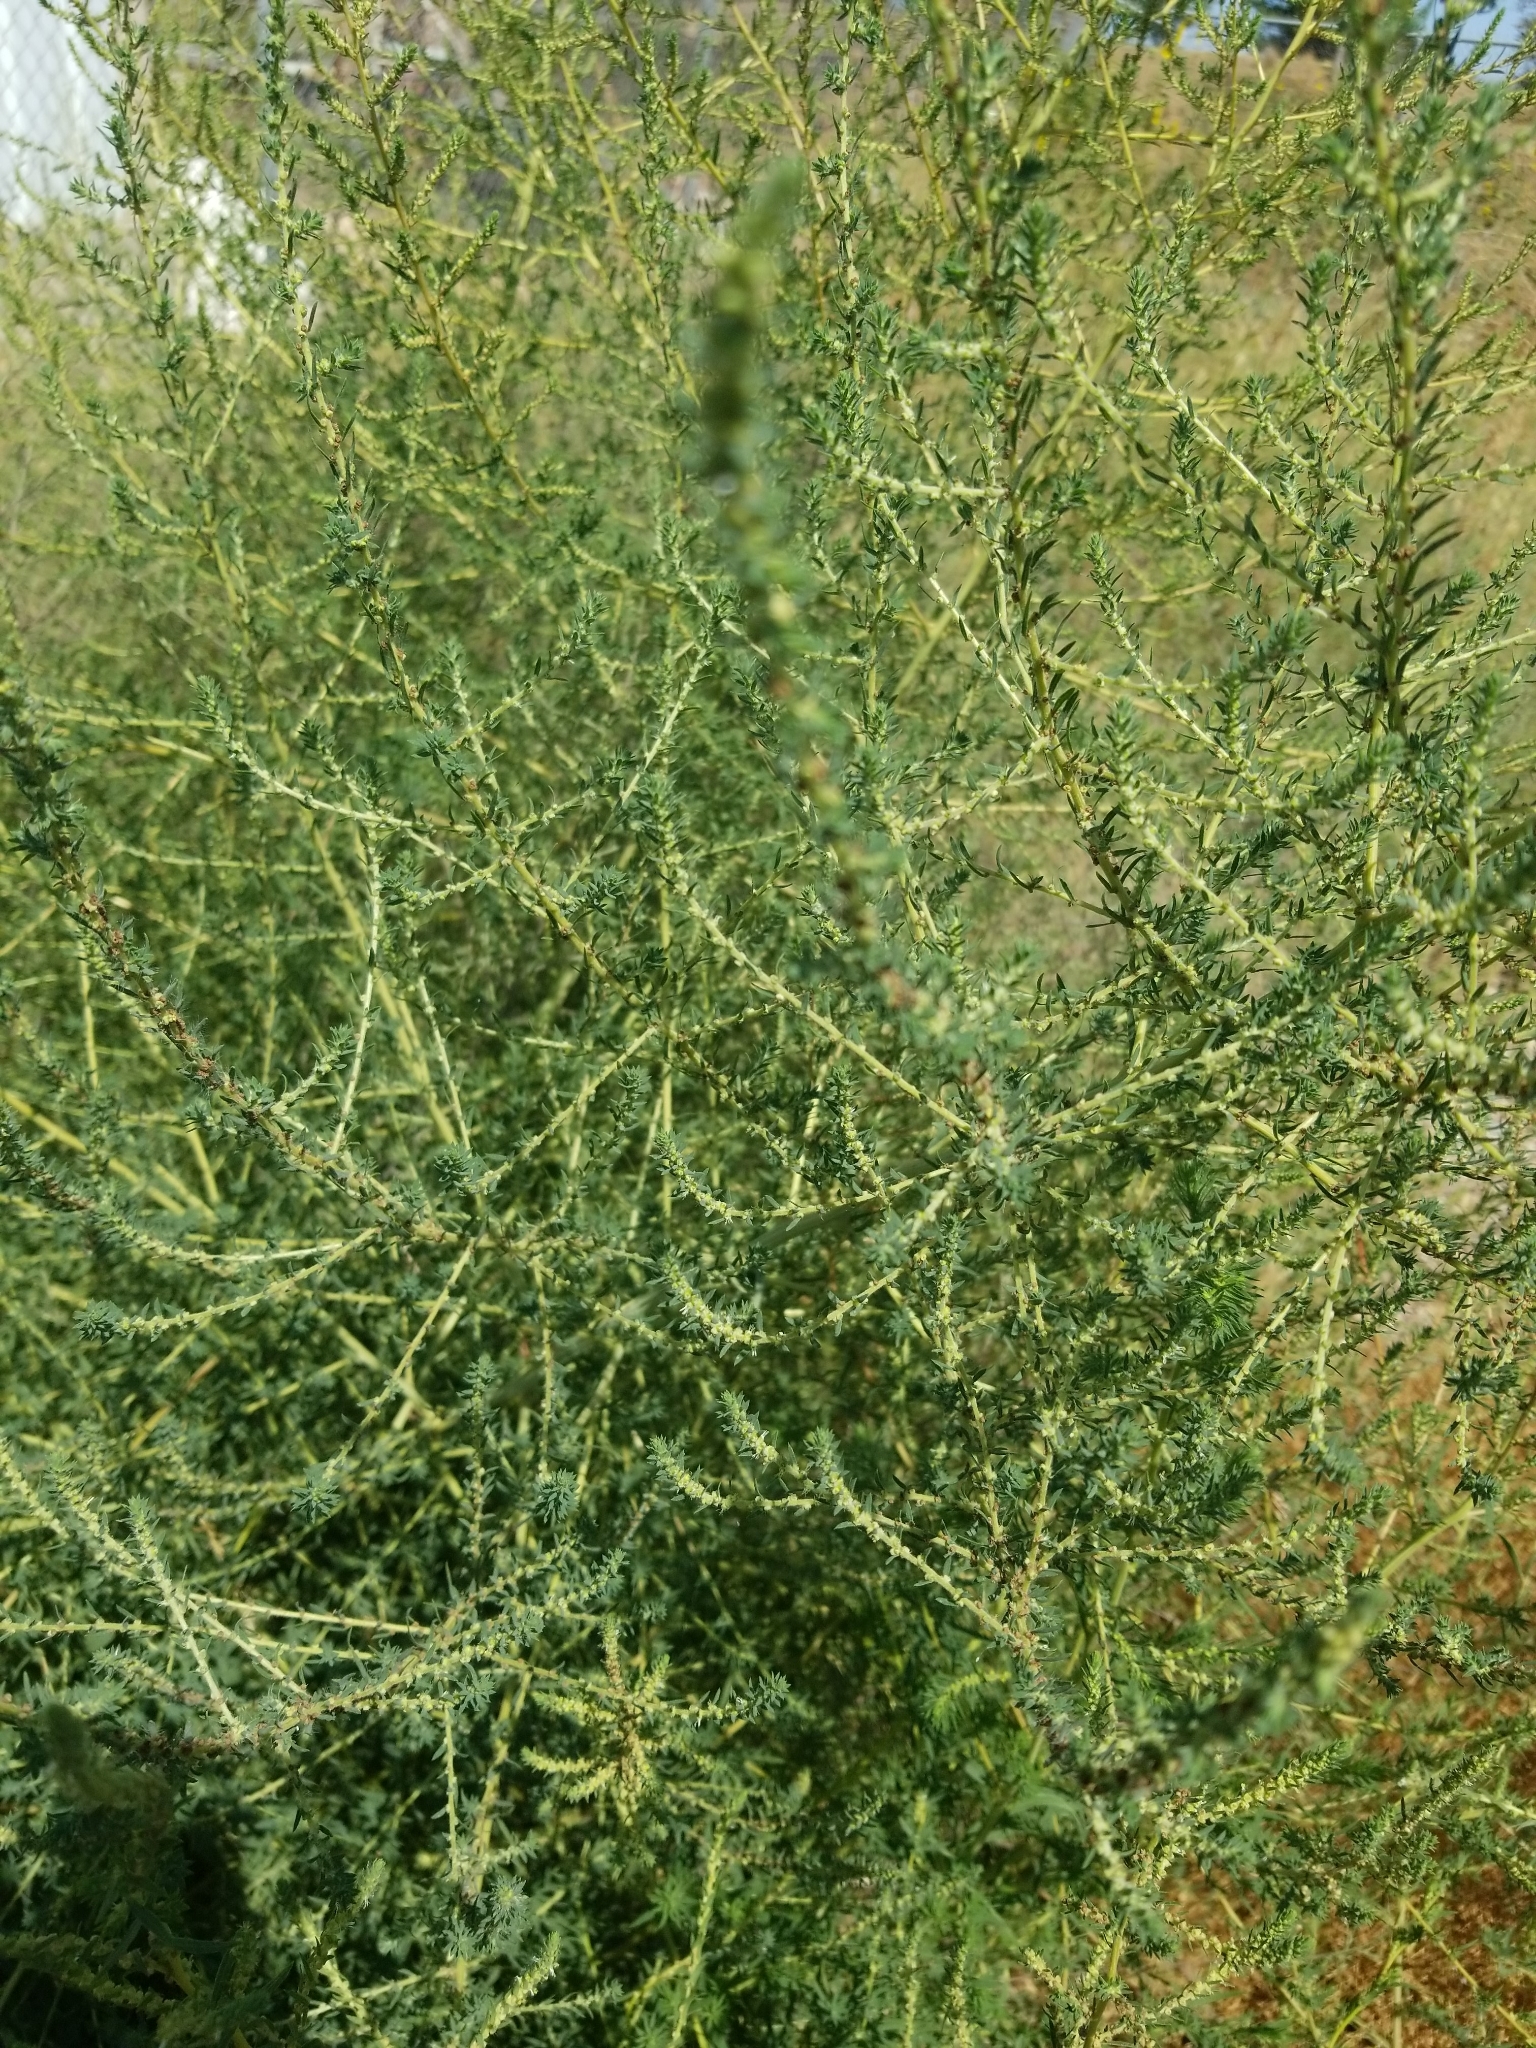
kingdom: Plantae
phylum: Tracheophyta
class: Magnoliopsida
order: Caryophyllales
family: Amaranthaceae
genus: Bassia
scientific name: Bassia scoparia
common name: Belvedere
